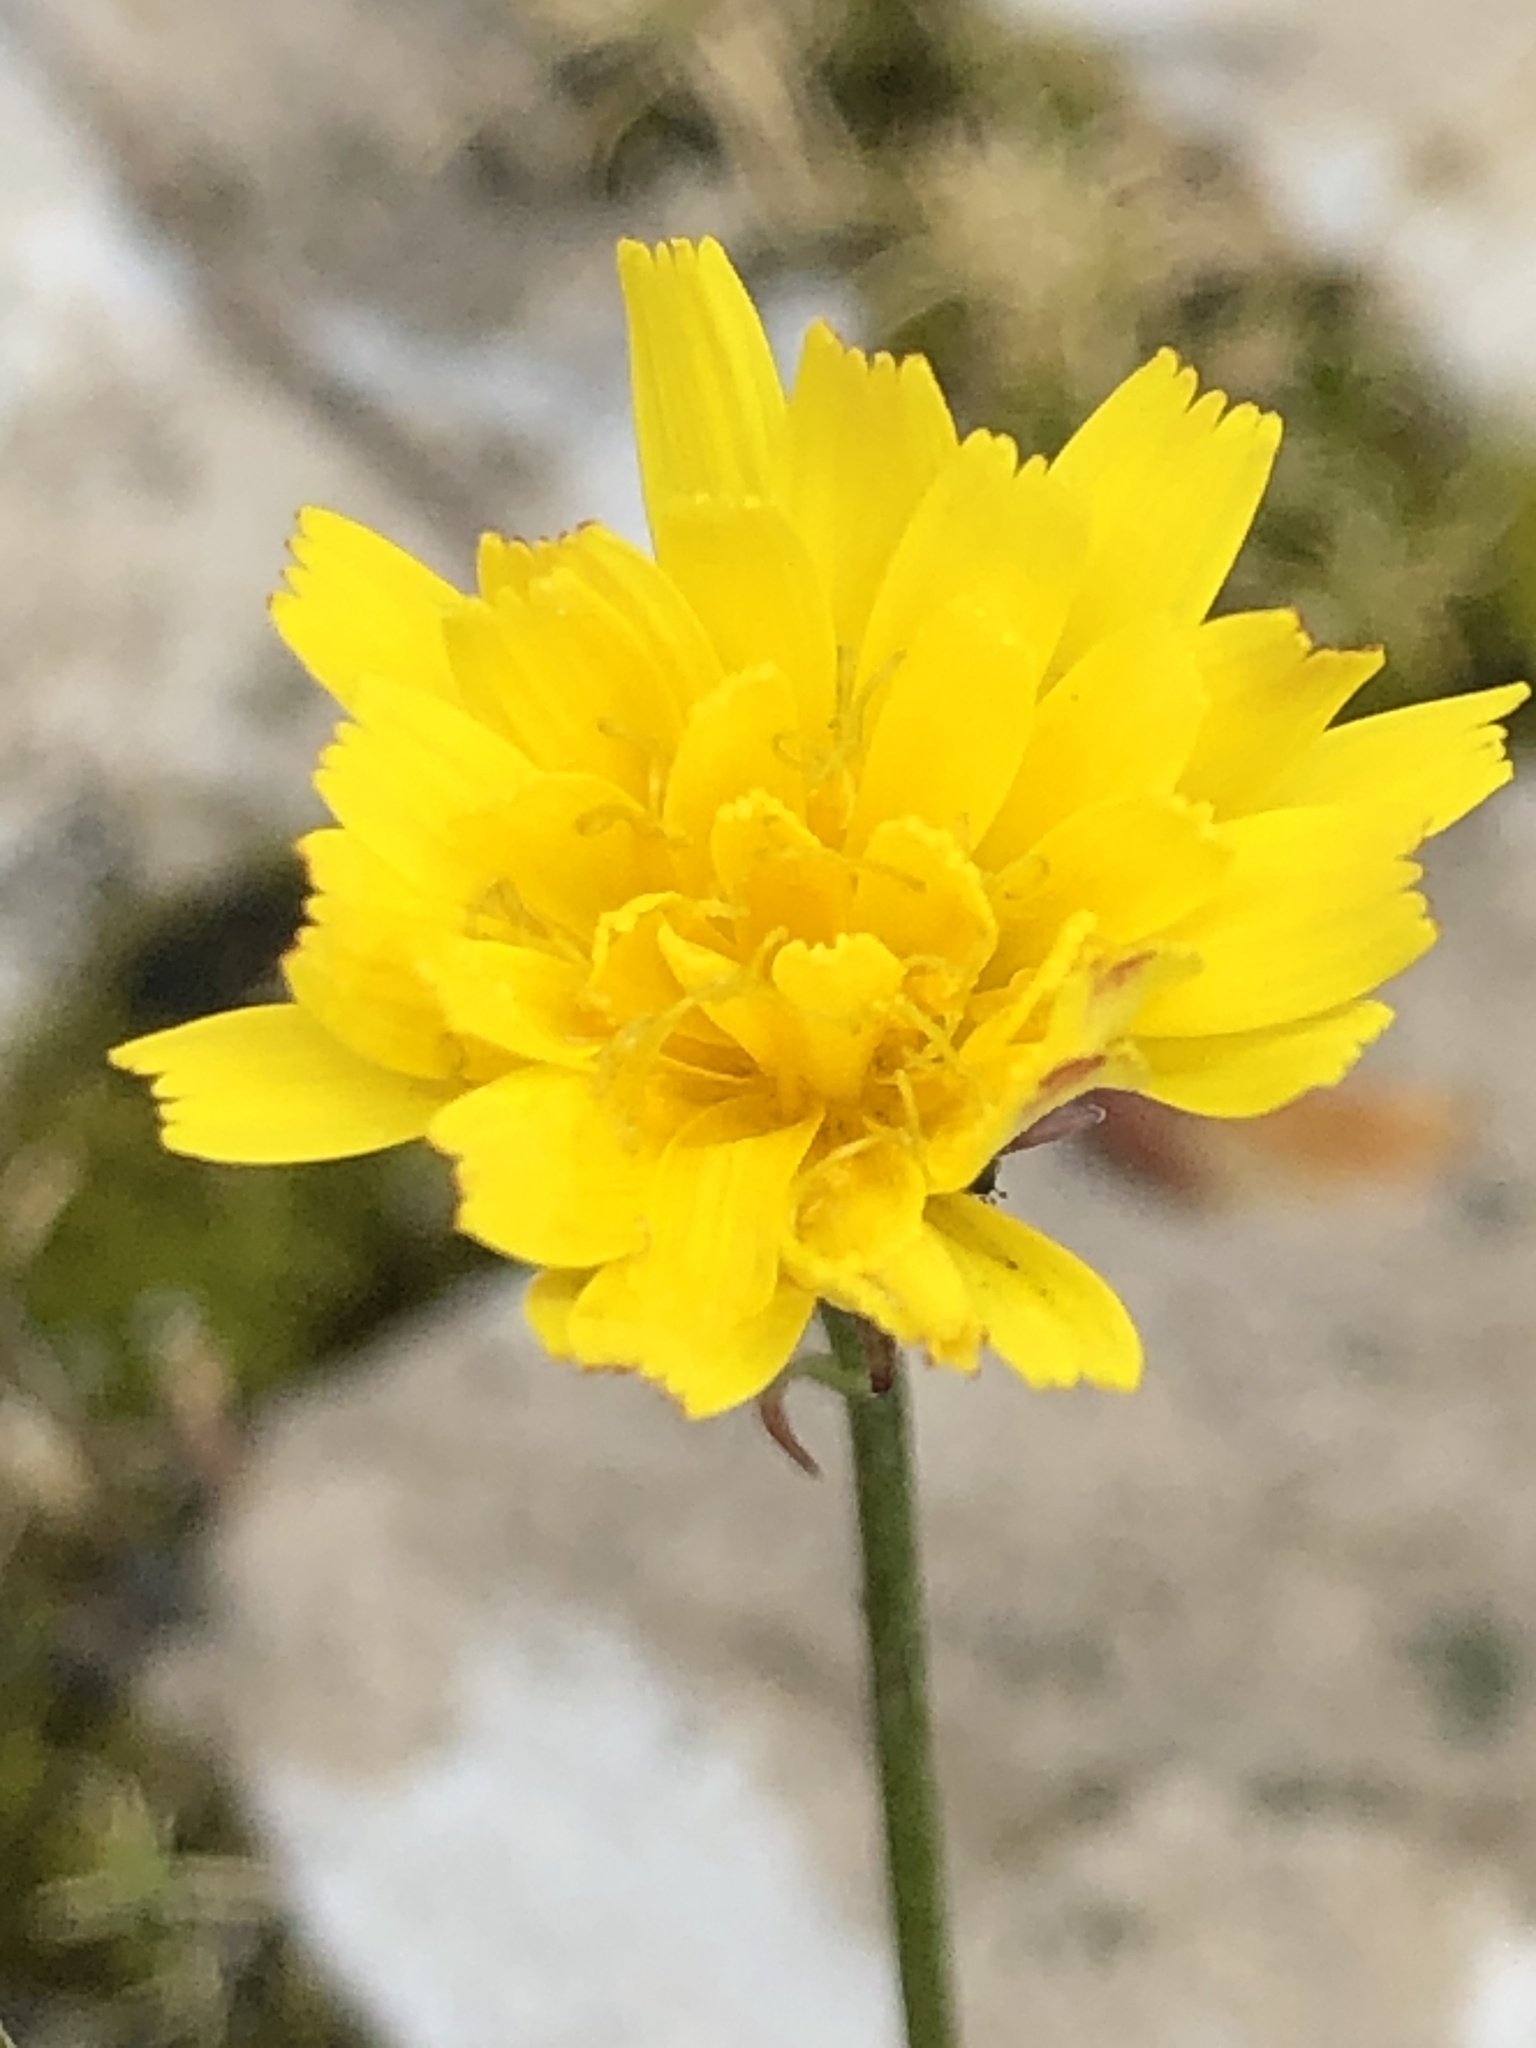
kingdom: Plantae
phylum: Tracheophyta
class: Magnoliopsida
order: Asterales
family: Asteraceae
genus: Hypochaeris
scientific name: Hypochaeris radicata
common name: Flatweed
